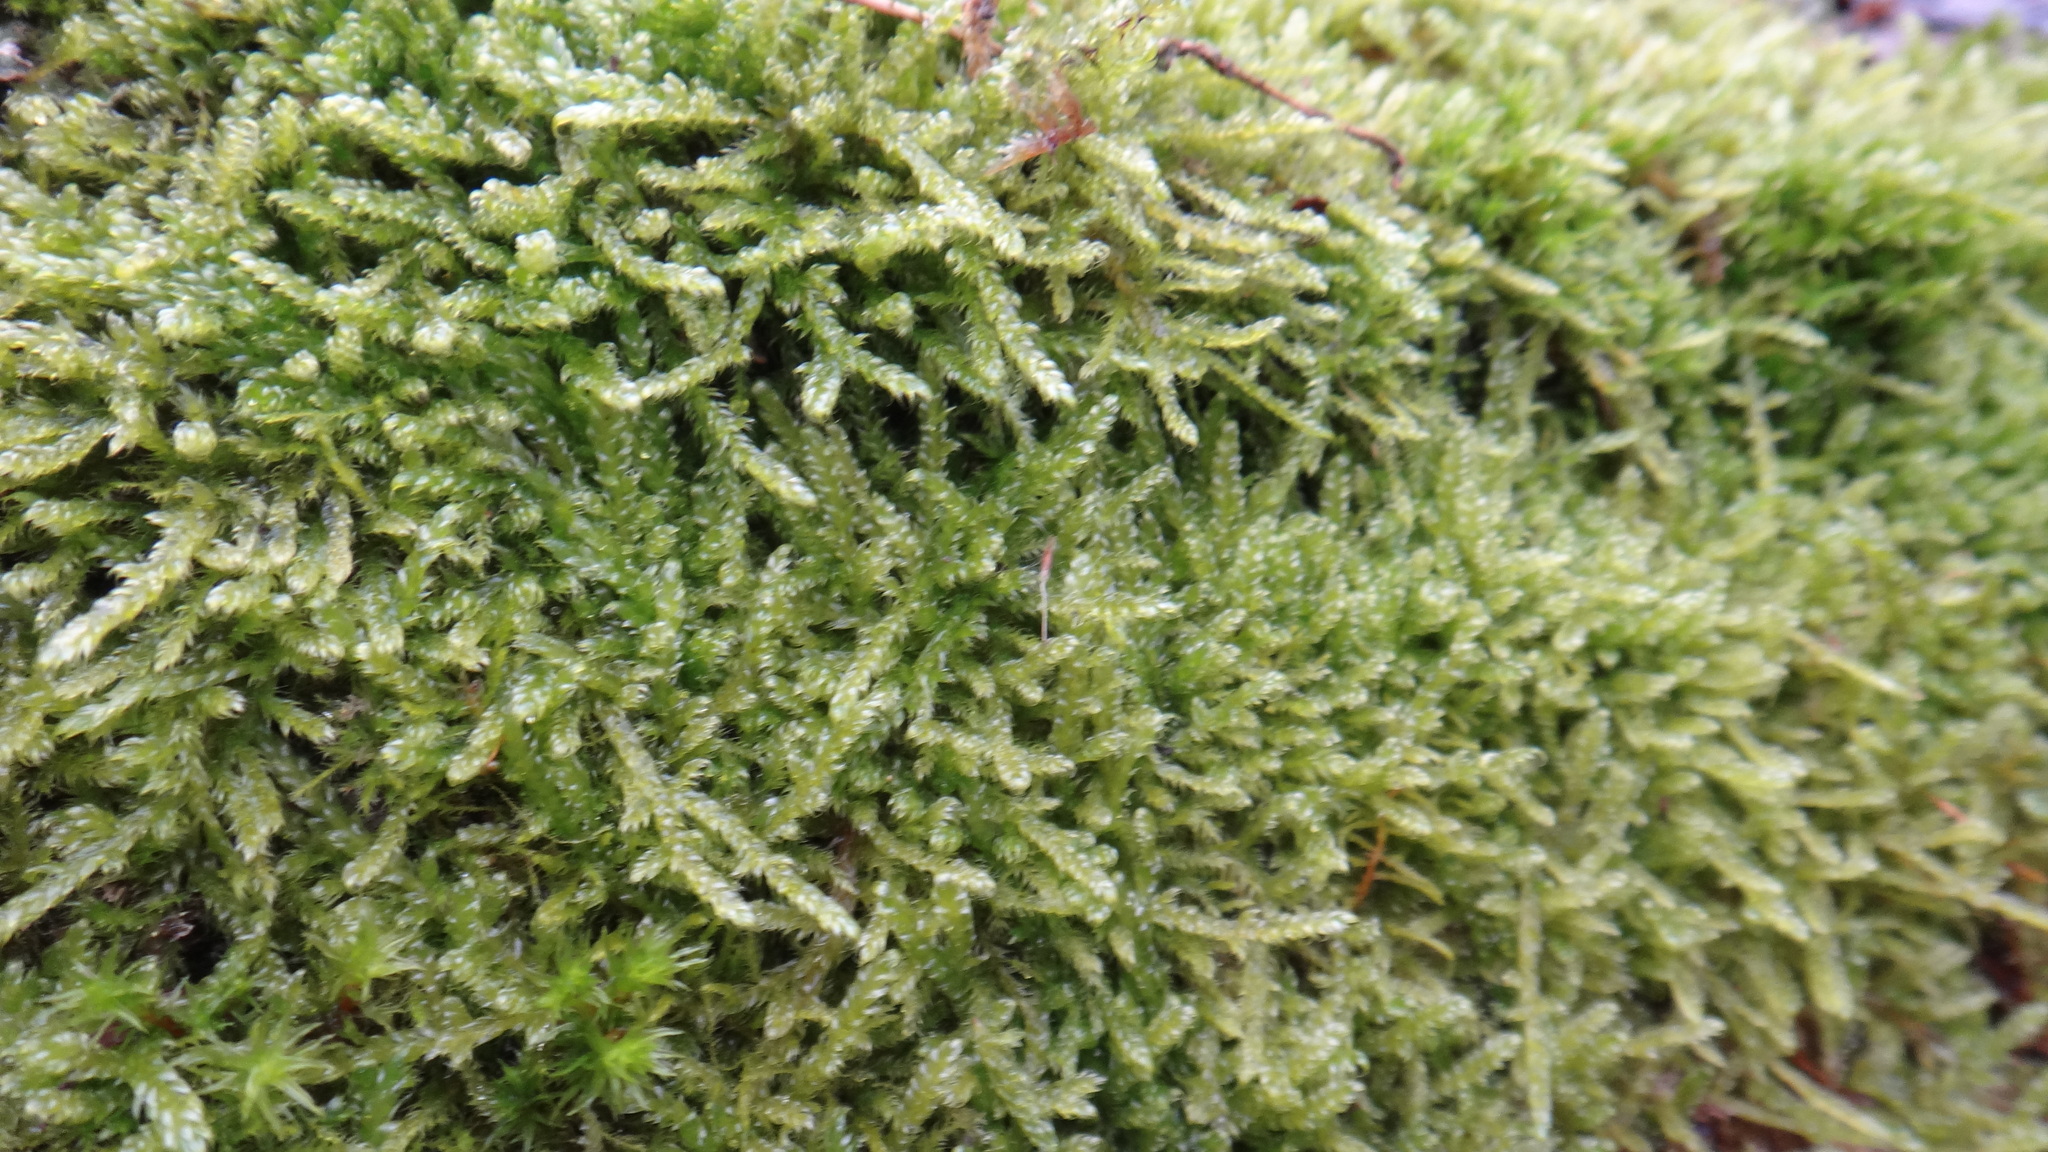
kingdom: Plantae
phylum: Bryophyta
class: Bryopsida
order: Hypnales
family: Hypnaceae
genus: Hypnum
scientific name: Hypnum cupressiforme
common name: Cypress-leaved plait-moss
